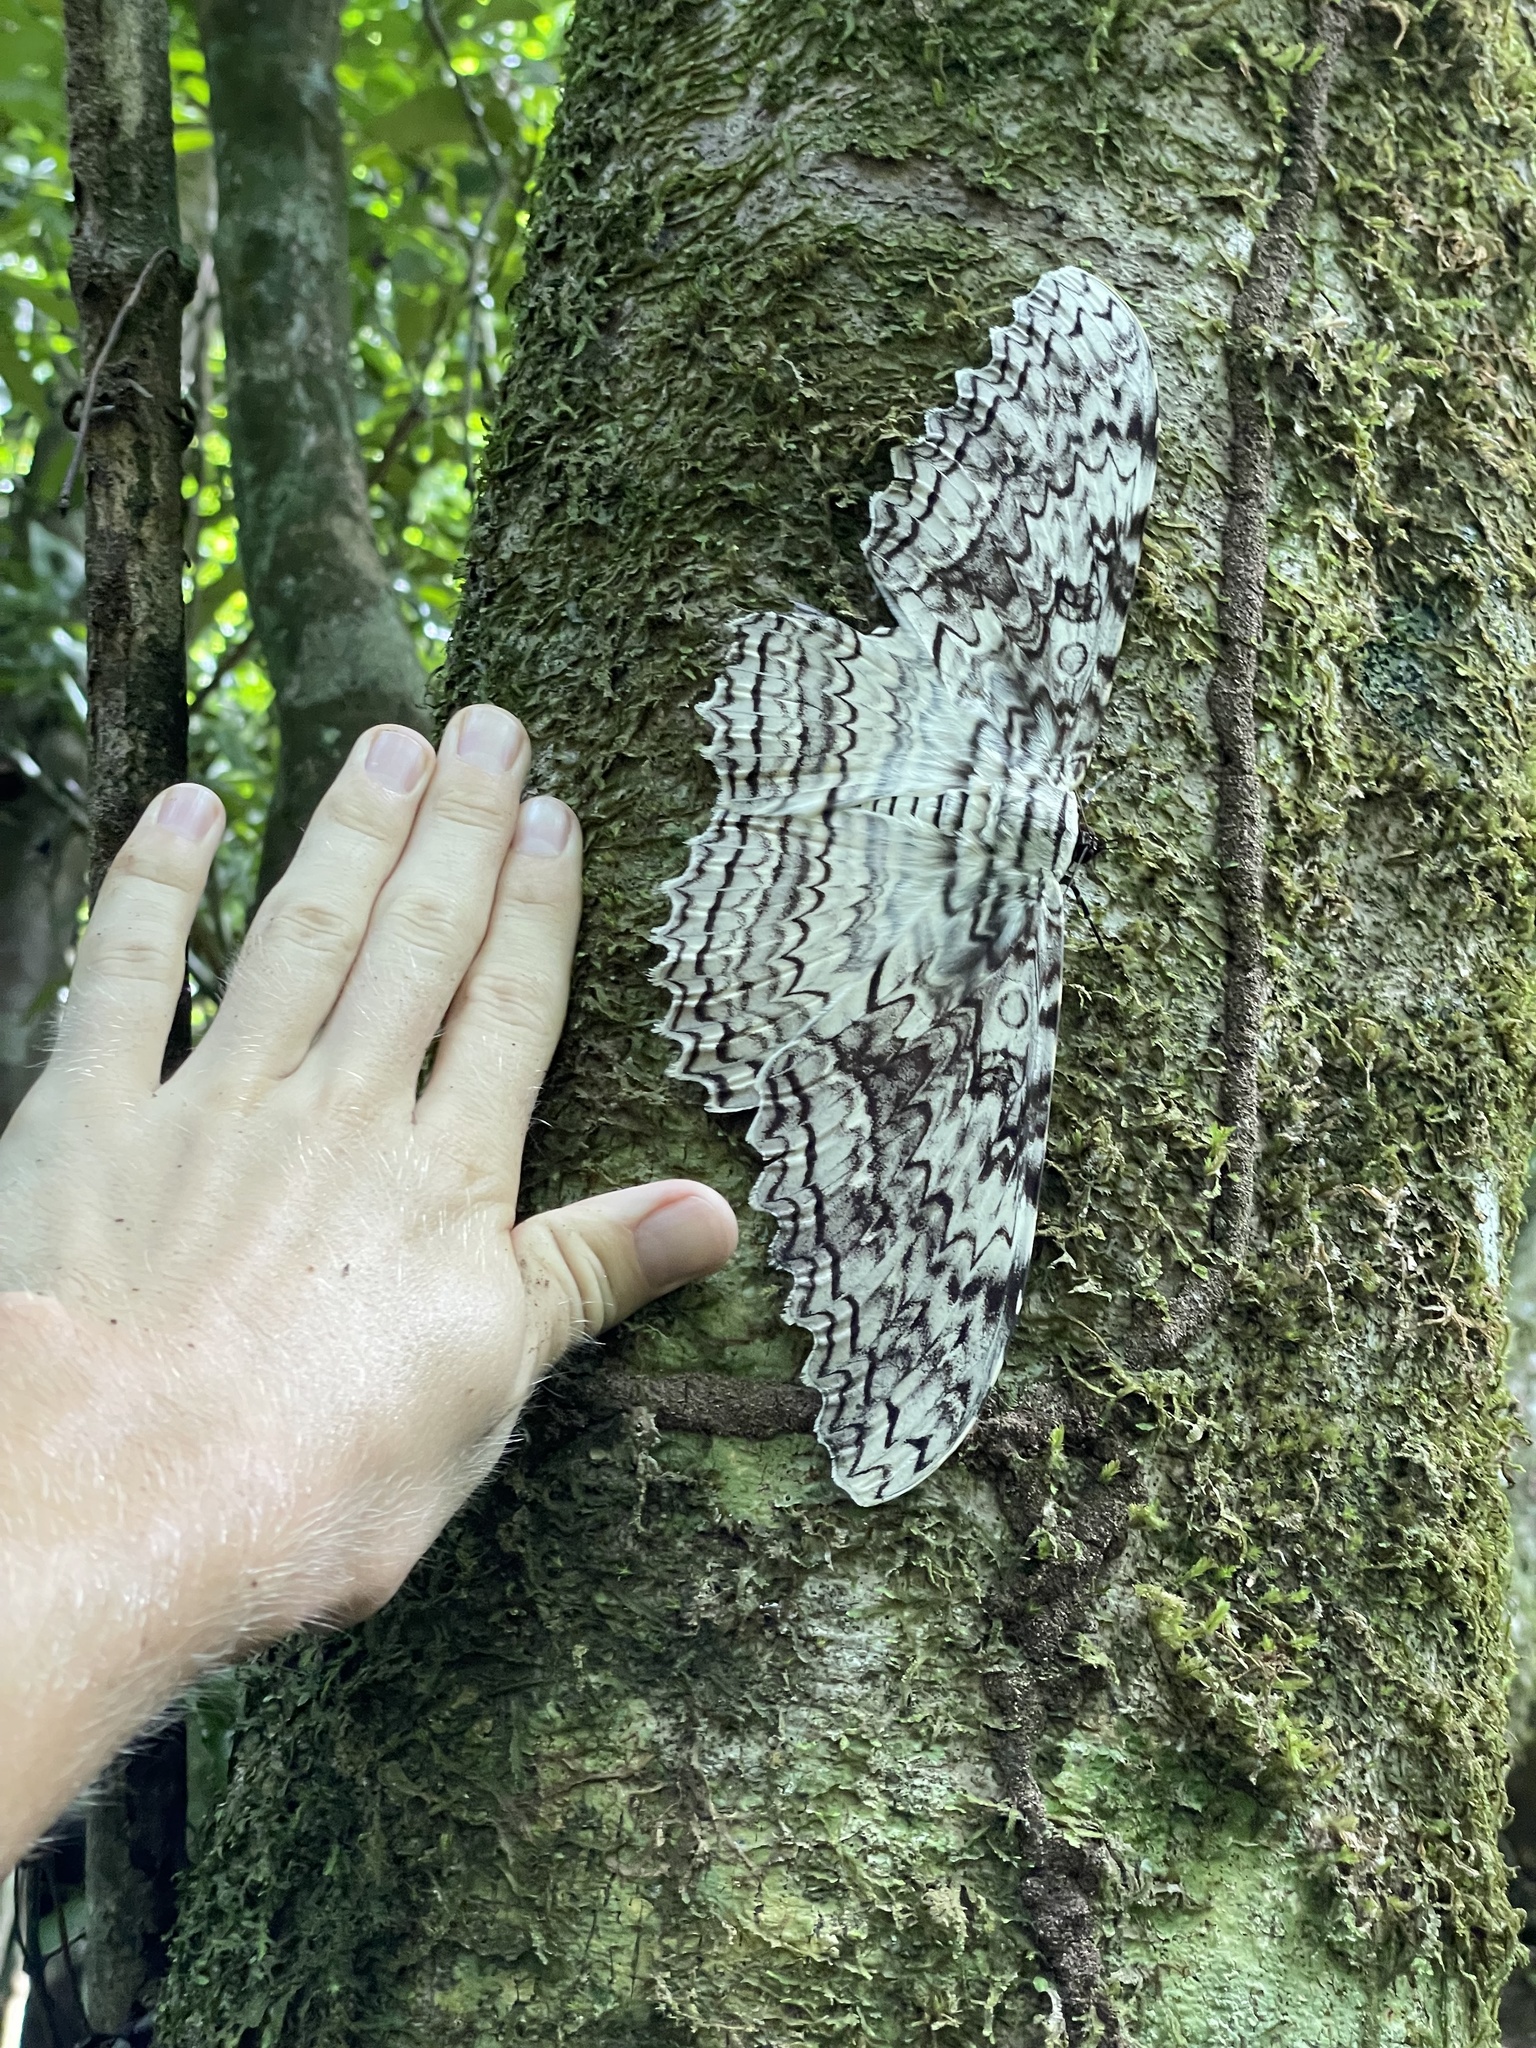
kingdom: Animalia
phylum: Arthropoda
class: Insecta
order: Lepidoptera
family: Erebidae
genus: Thysania
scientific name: Thysania agrippina
